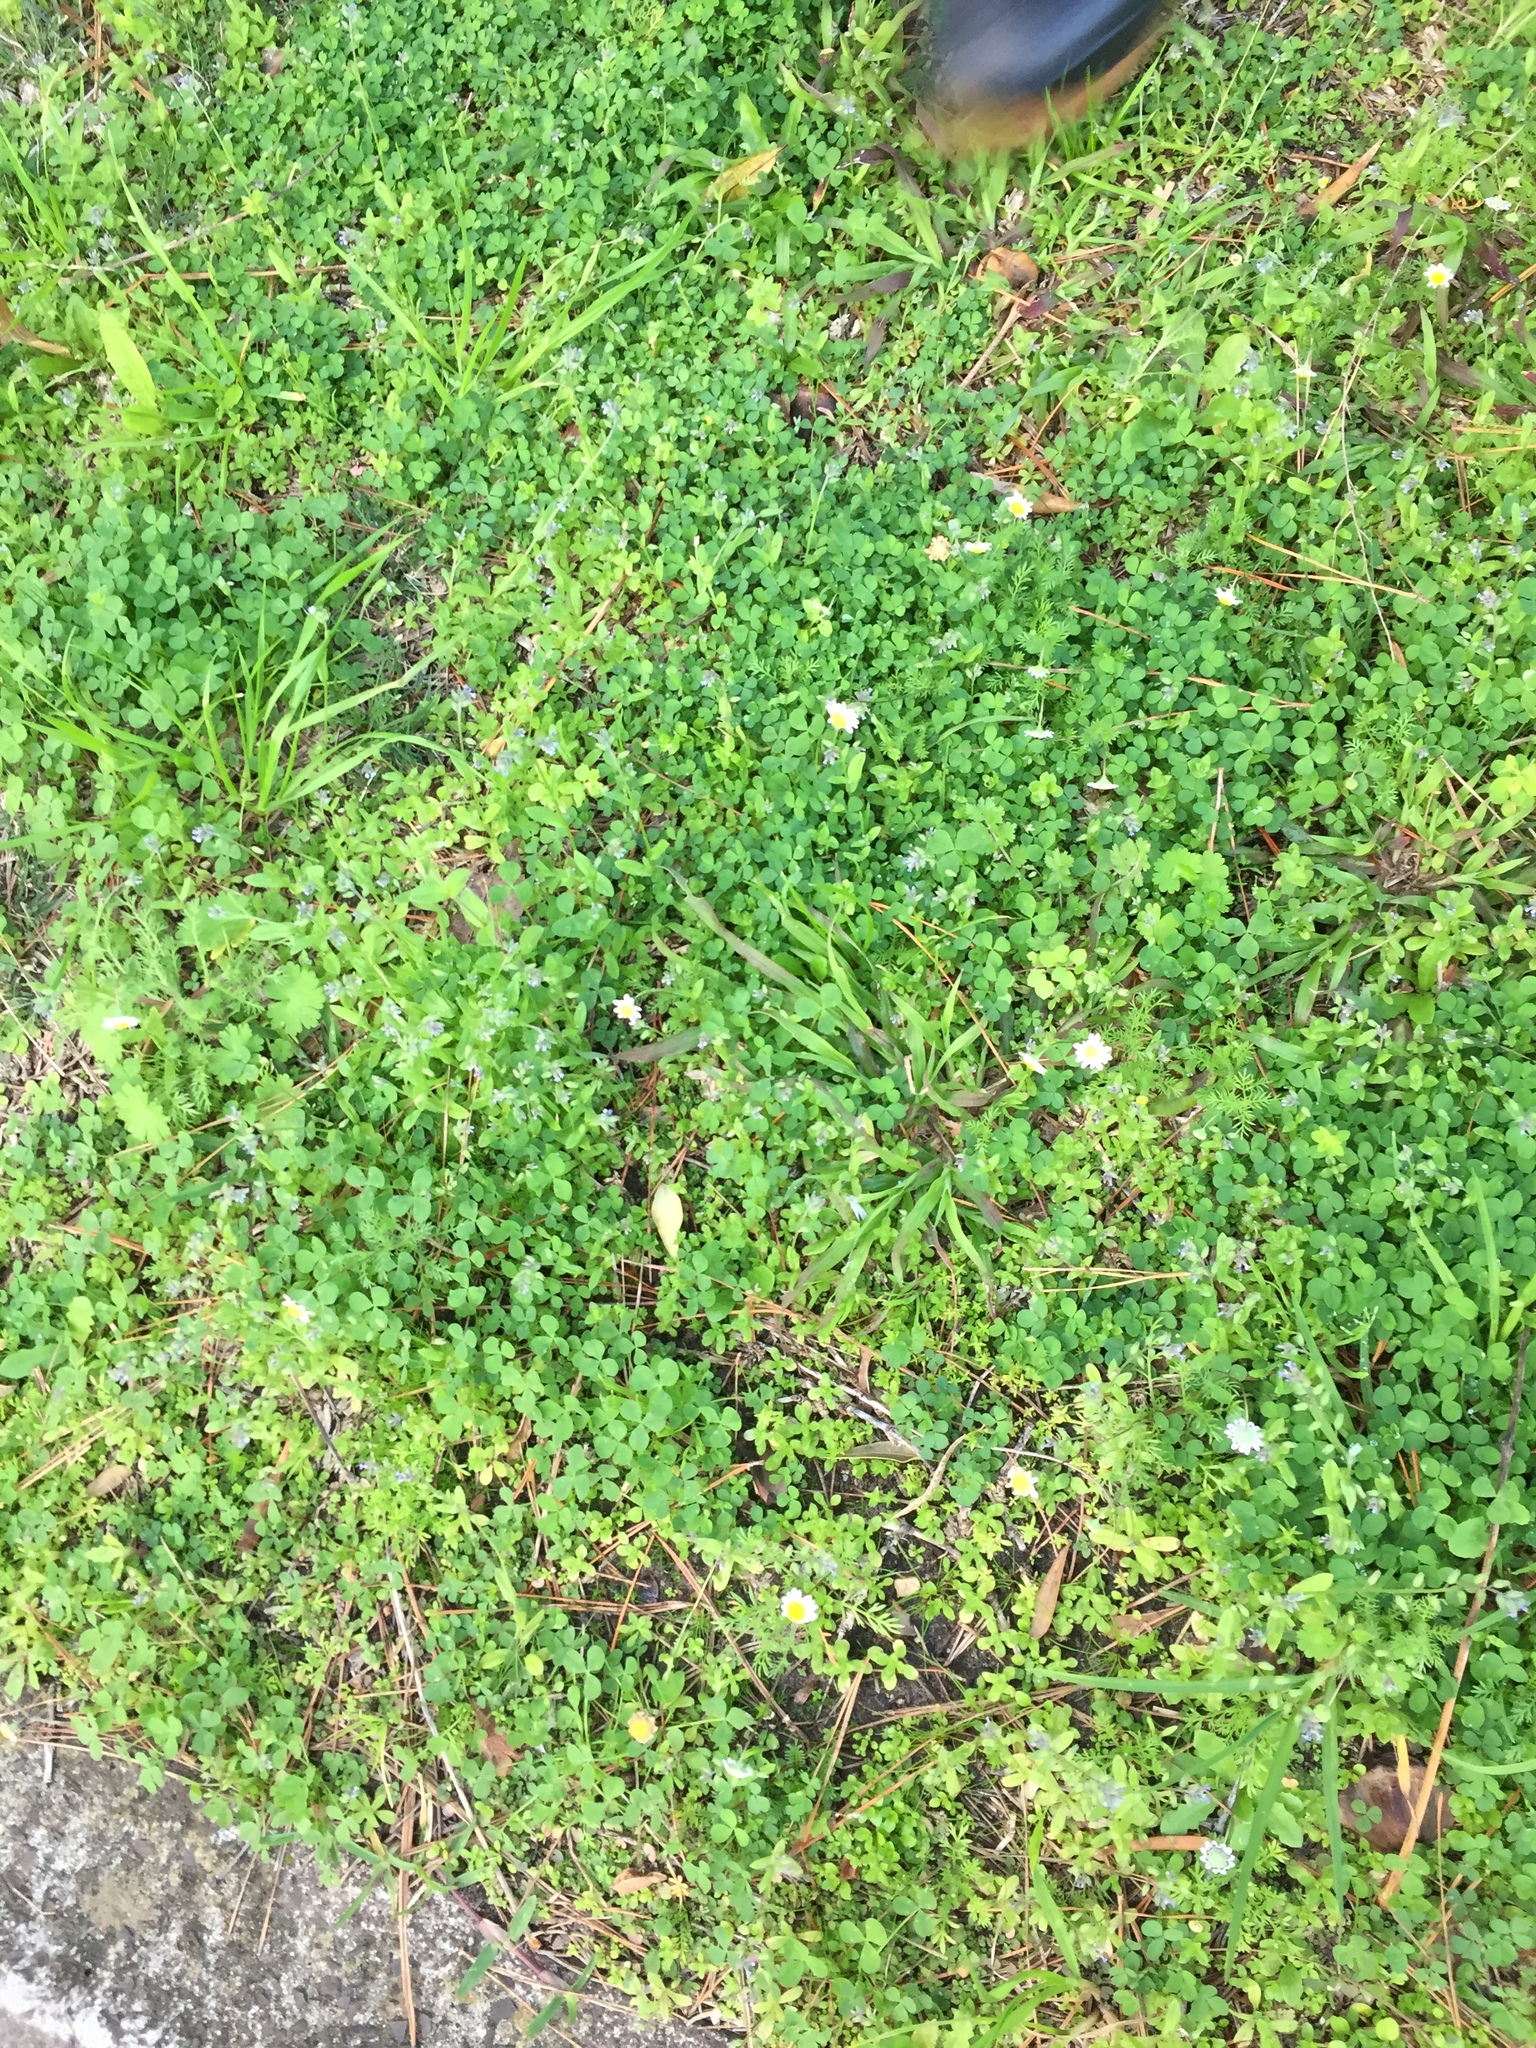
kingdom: Plantae
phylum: Tracheophyta
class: Magnoliopsida
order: Boraginales
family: Boraginaceae
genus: Myosotis
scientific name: Myosotis discolor
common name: Changing forget-me-not
